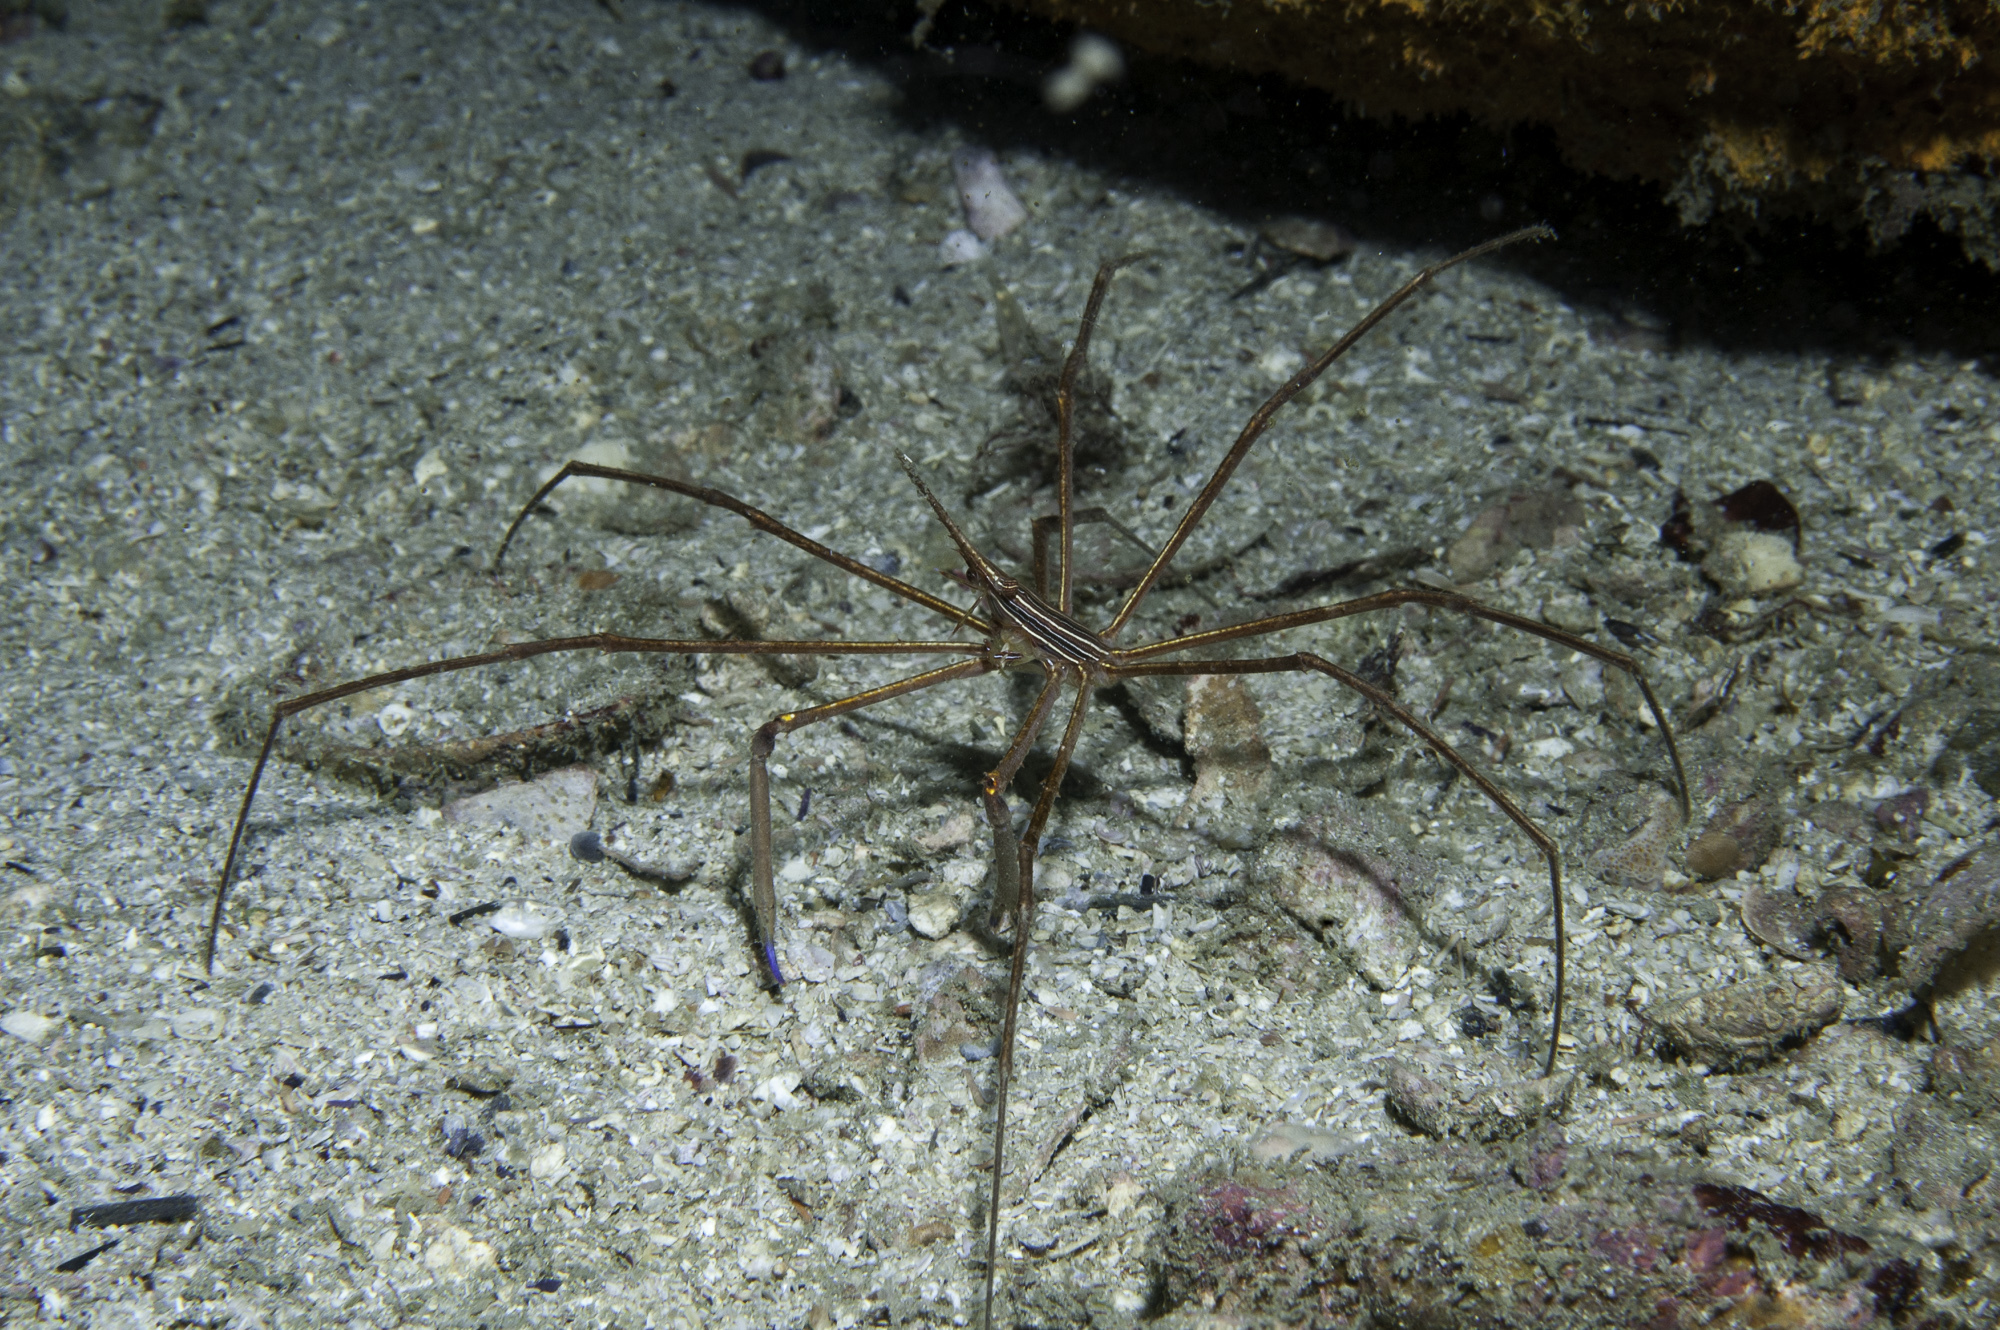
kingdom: Animalia
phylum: Arthropoda
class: Malacostraca
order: Decapoda
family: Inachoididae
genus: Stenorhynchus
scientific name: Stenorhynchus seticornis
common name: Arrow crab
